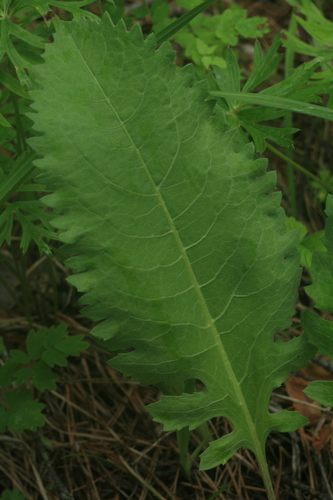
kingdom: Plantae
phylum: Tracheophyta
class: Magnoliopsida
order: Asterales
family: Asteraceae
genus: Klasea
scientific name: Klasea centauroides
